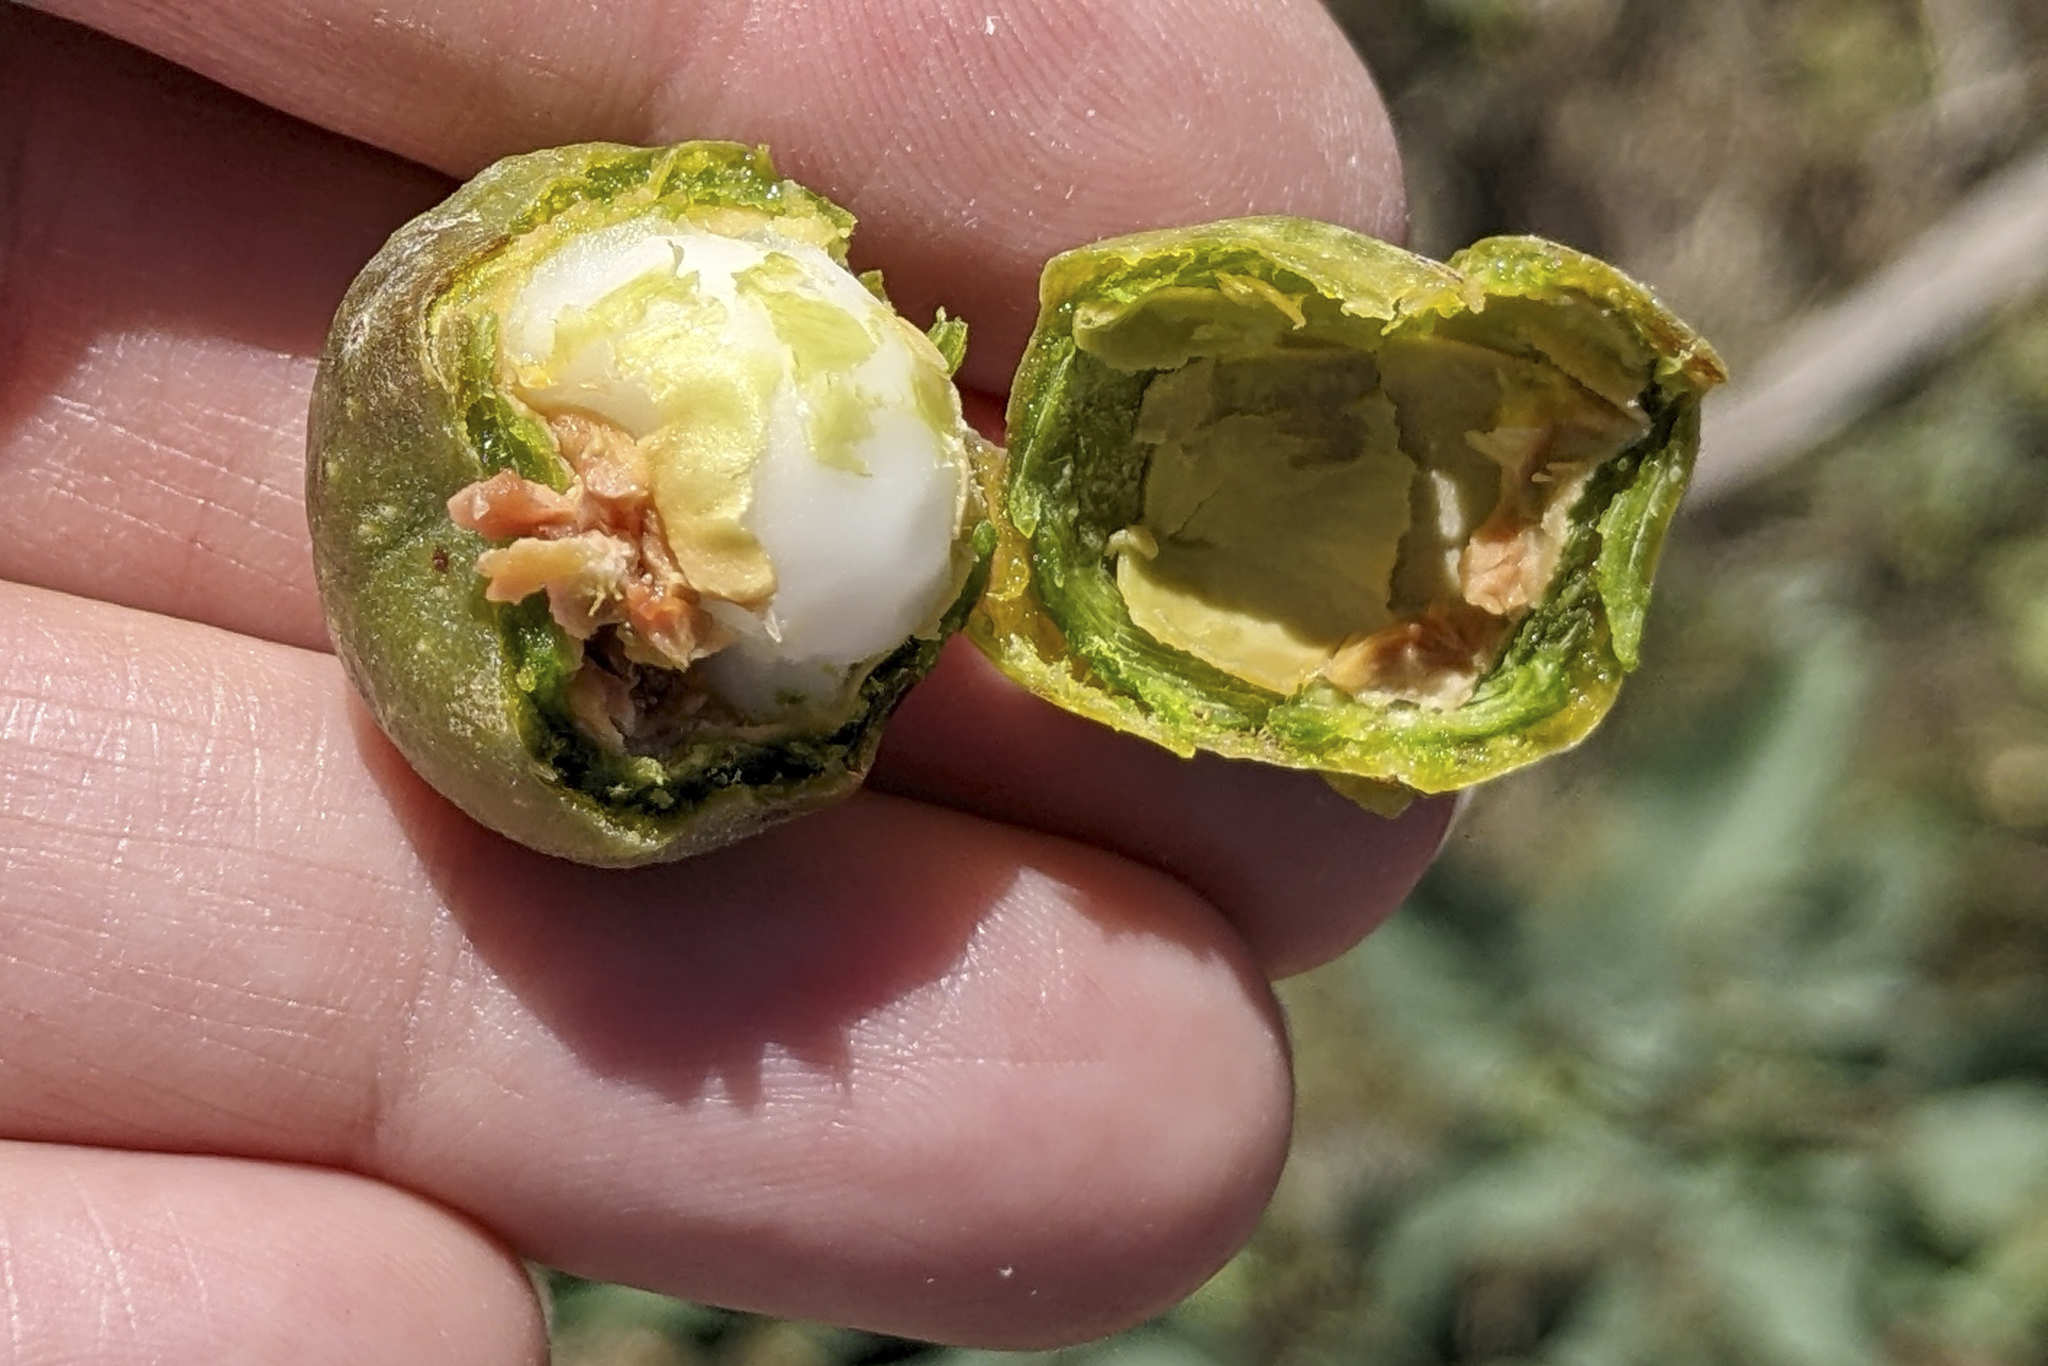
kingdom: Plantae
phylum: Tracheophyta
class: Liliopsida
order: Arecales
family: Arecaceae
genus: Brahea
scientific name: Brahea armata
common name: Mexican blue palm
